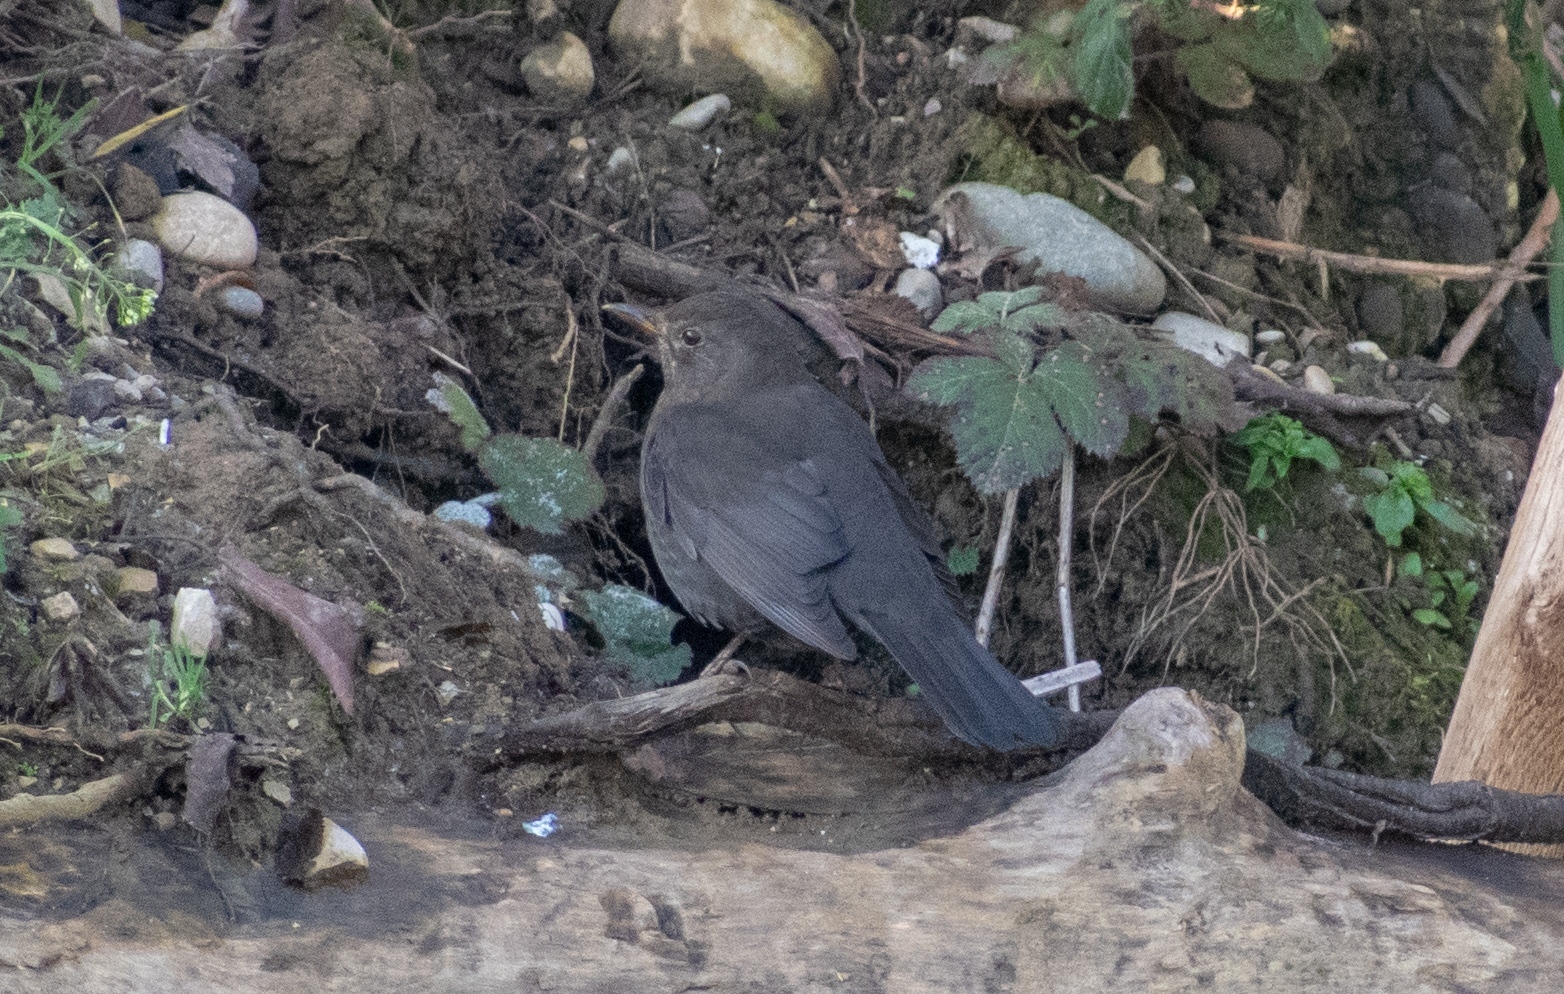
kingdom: Animalia
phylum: Chordata
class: Aves
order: Passeriformes
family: Turdidae
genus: Turdus
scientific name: Turdus merula
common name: Common blackbird
